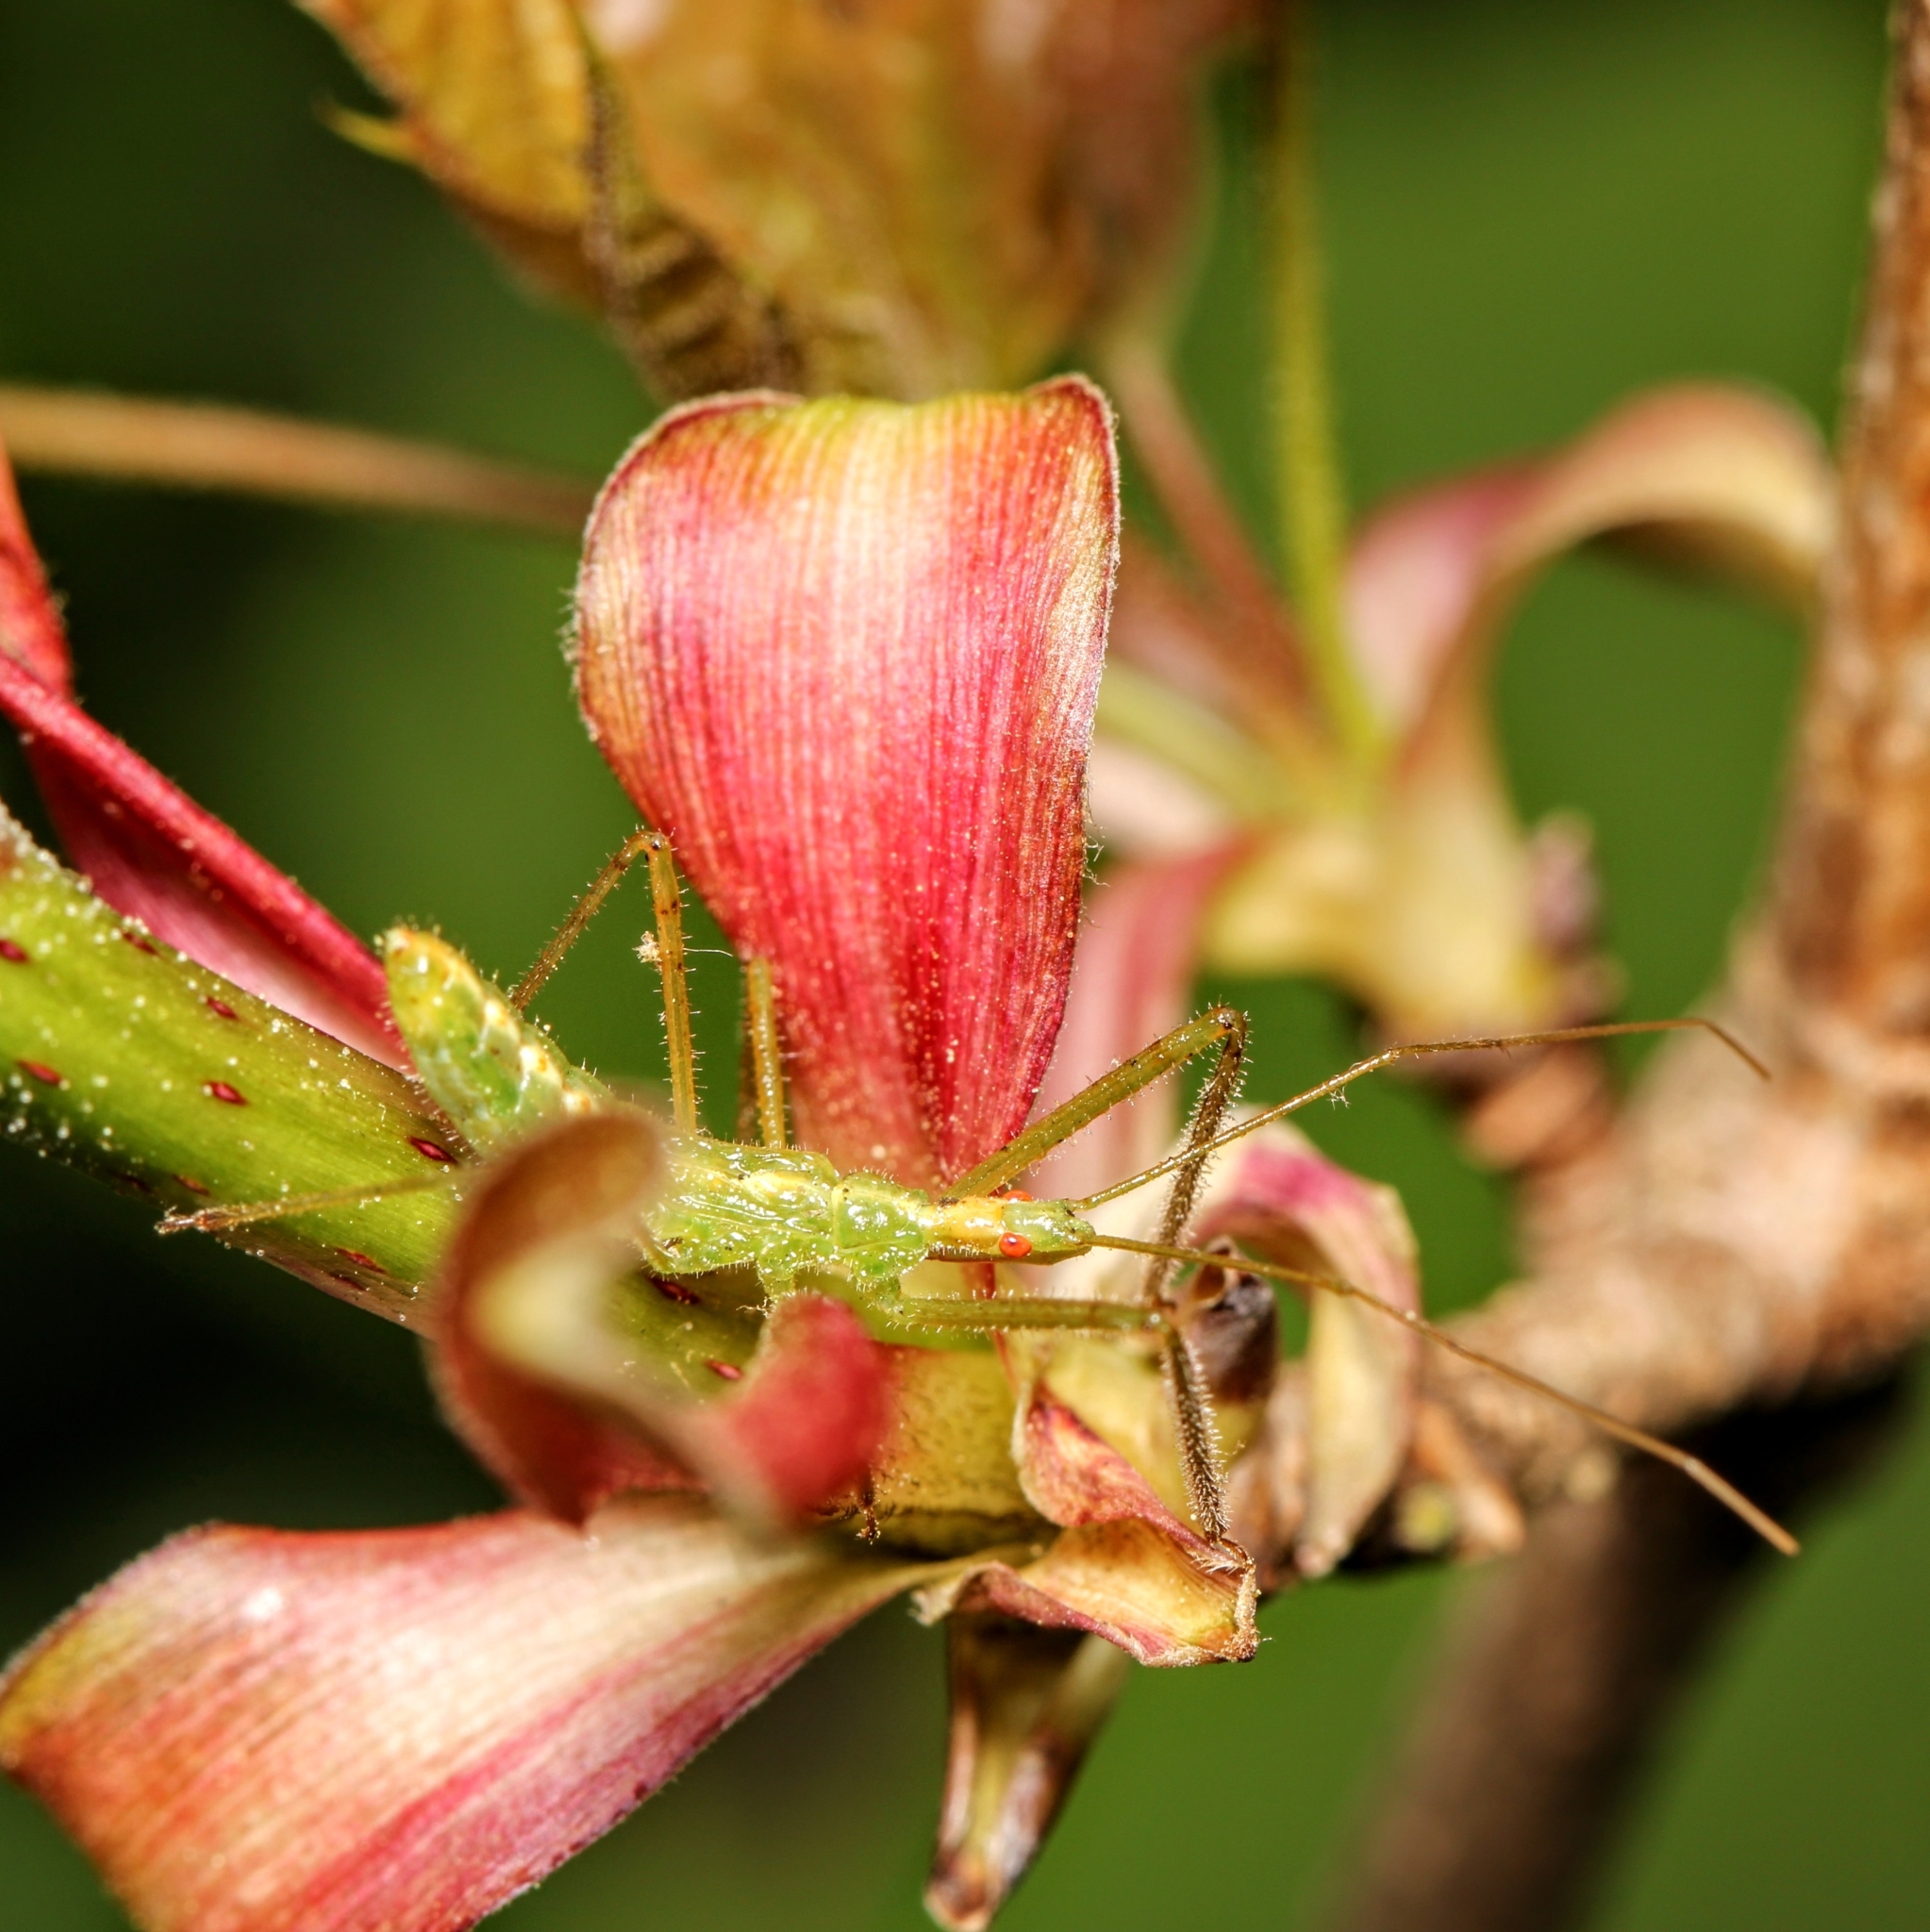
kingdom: Animalia
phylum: Arthropoda
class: Insecta
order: Hemiptera
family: Reduviidae
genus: Zelus
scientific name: Zelus luridus
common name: Pale green assassin bug
